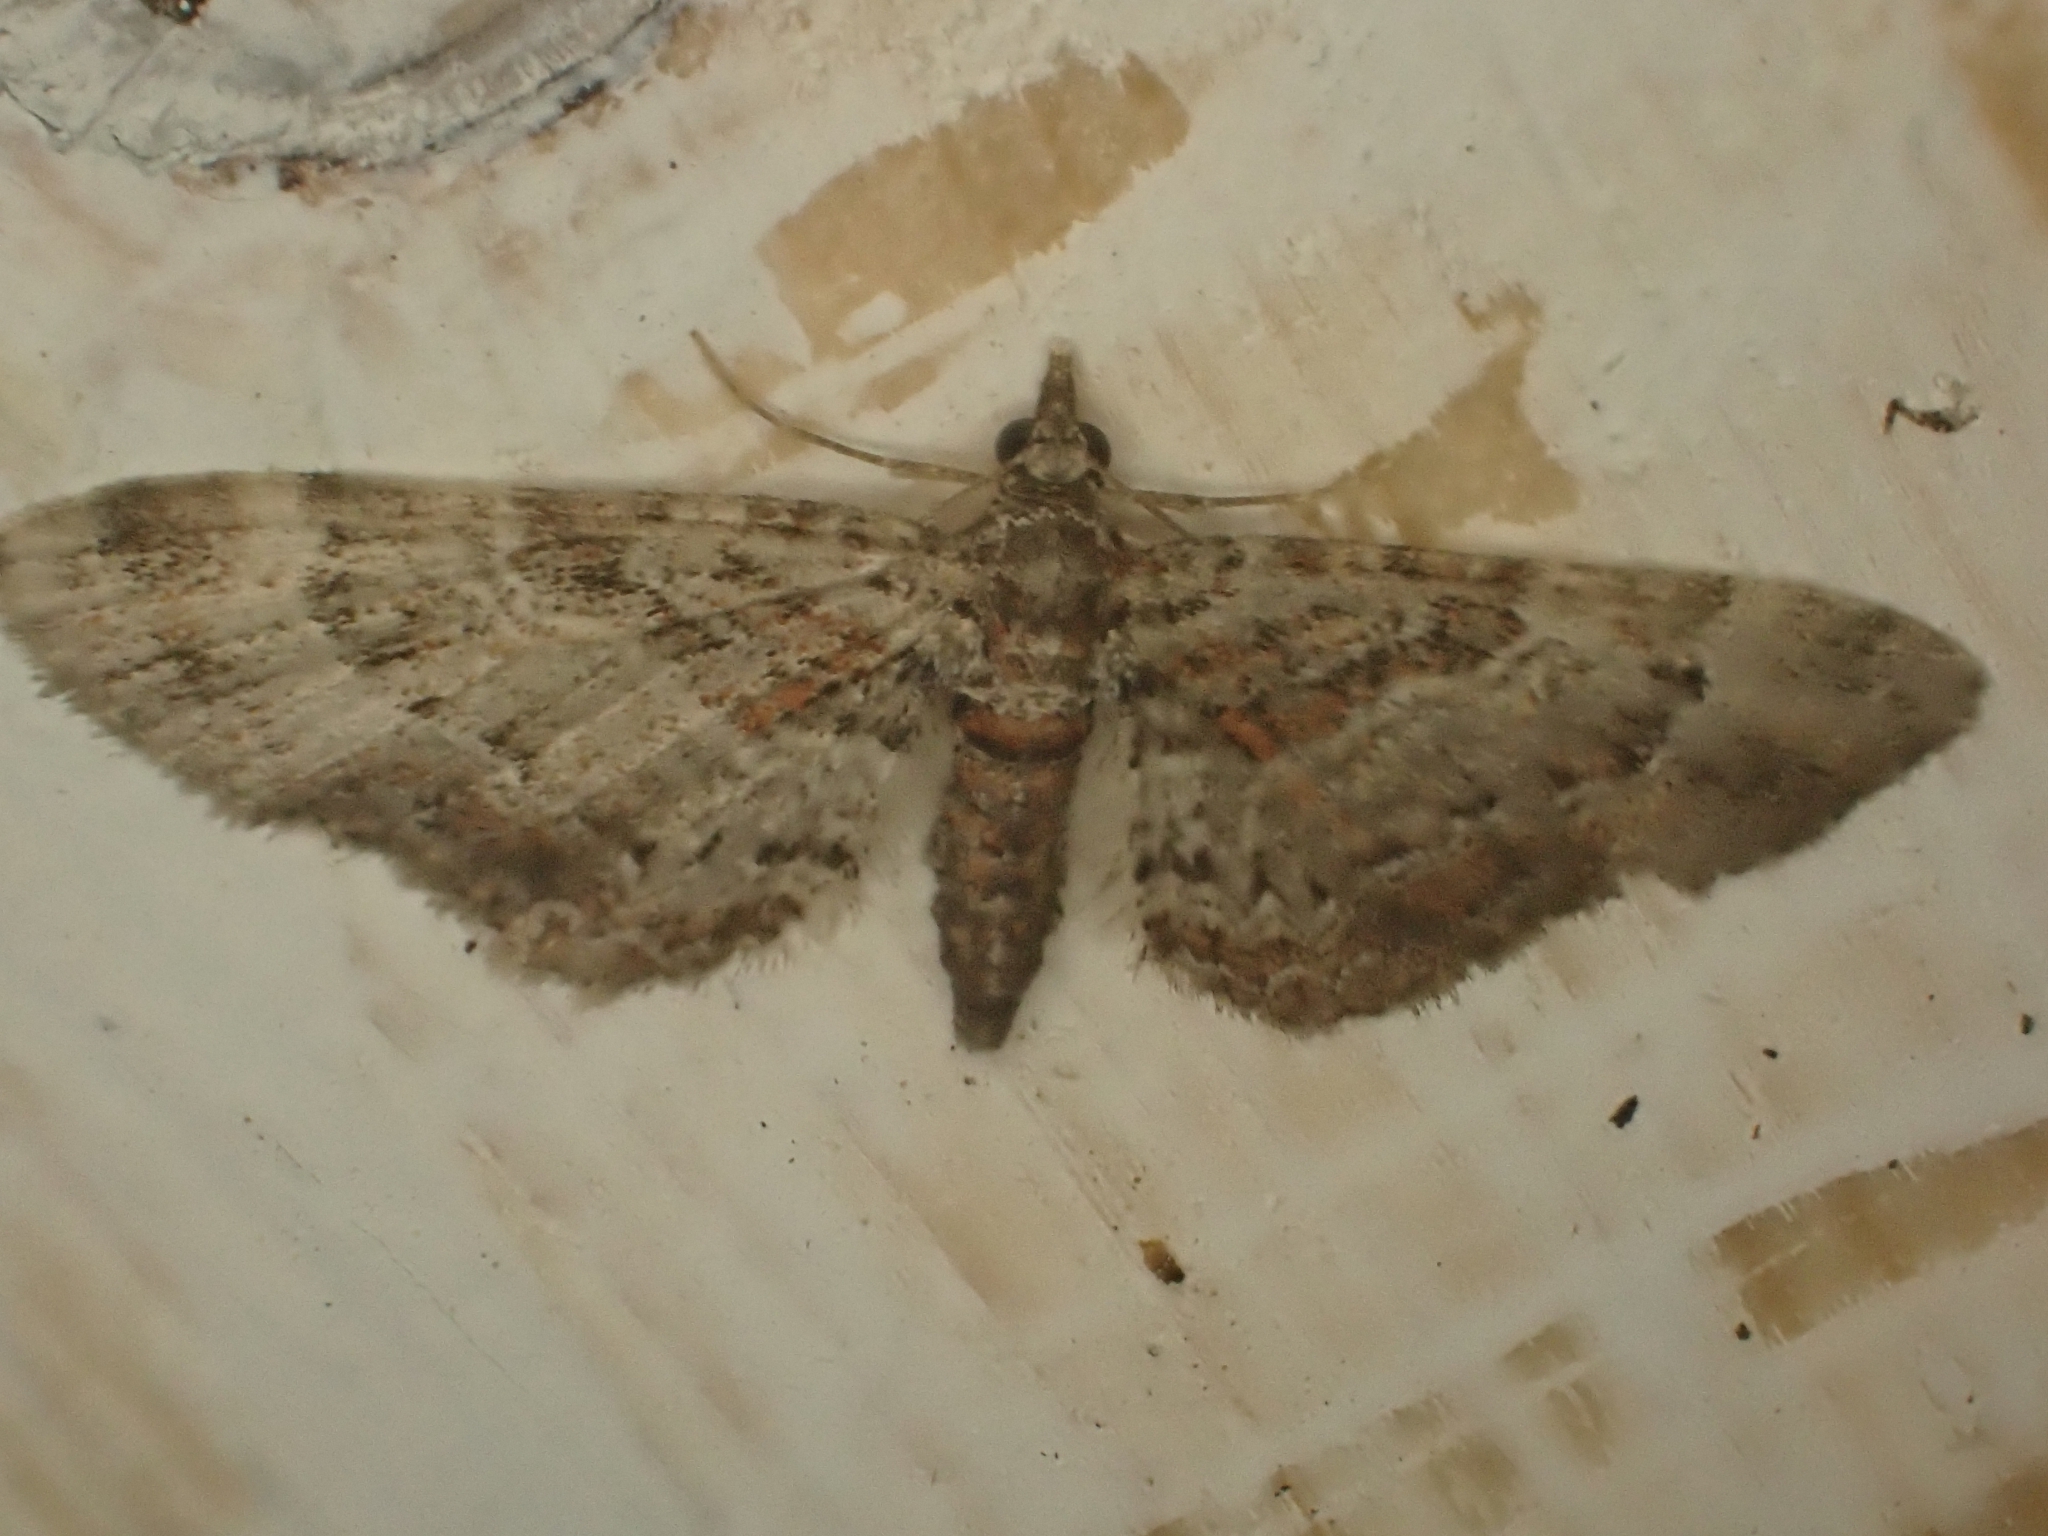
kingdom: Animalia
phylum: Arthropoda
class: Insecta
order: Lepidoptera
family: Geometridae
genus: Gymnoscelis
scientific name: Gymnoscelis rufifasciata
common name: Double-striped pug
